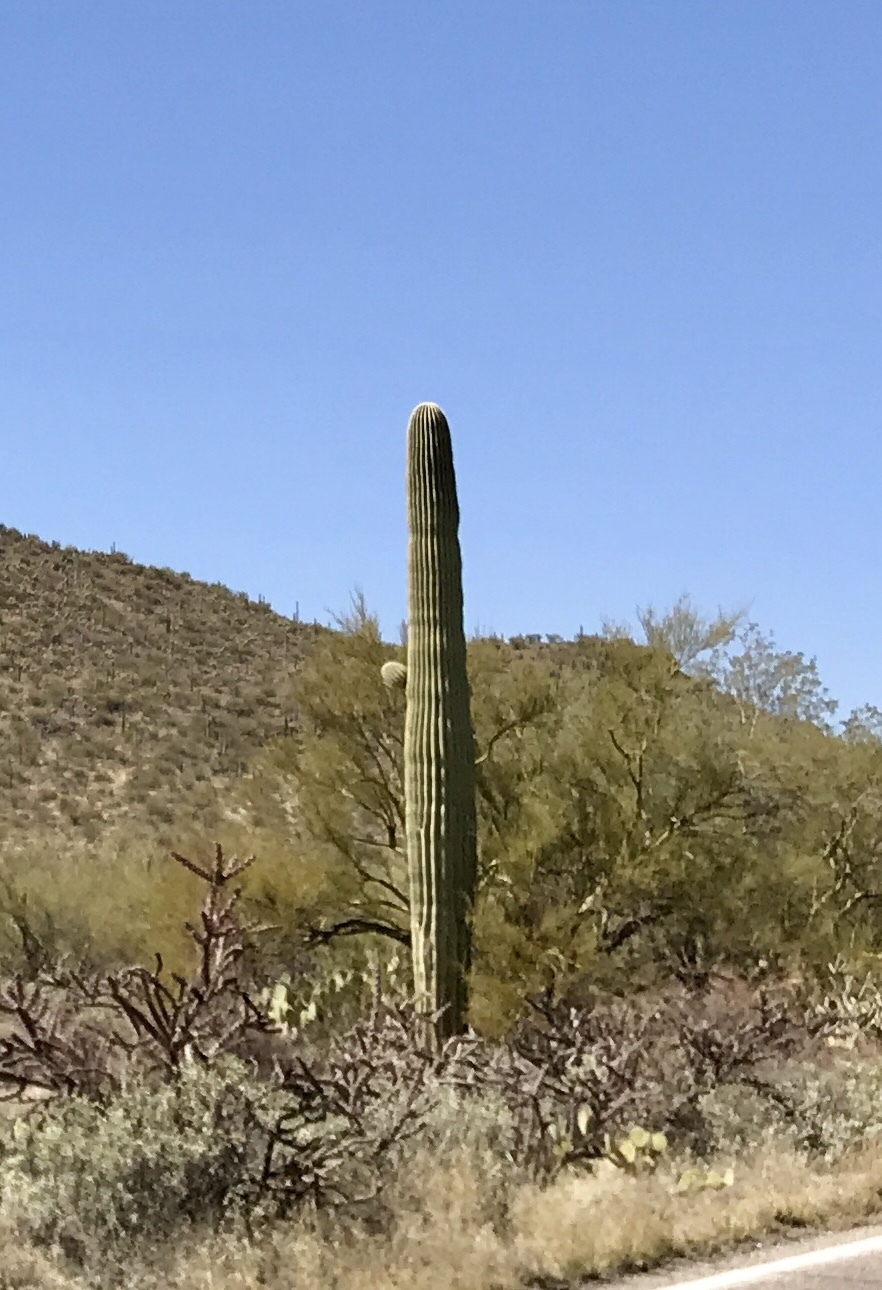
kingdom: Plantae
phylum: Tracheophyta
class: Magnoliopsida
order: Caryophyllales
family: Cactaceae
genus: Carnegiea
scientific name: Carnegiea gigantea
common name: Saguaro
